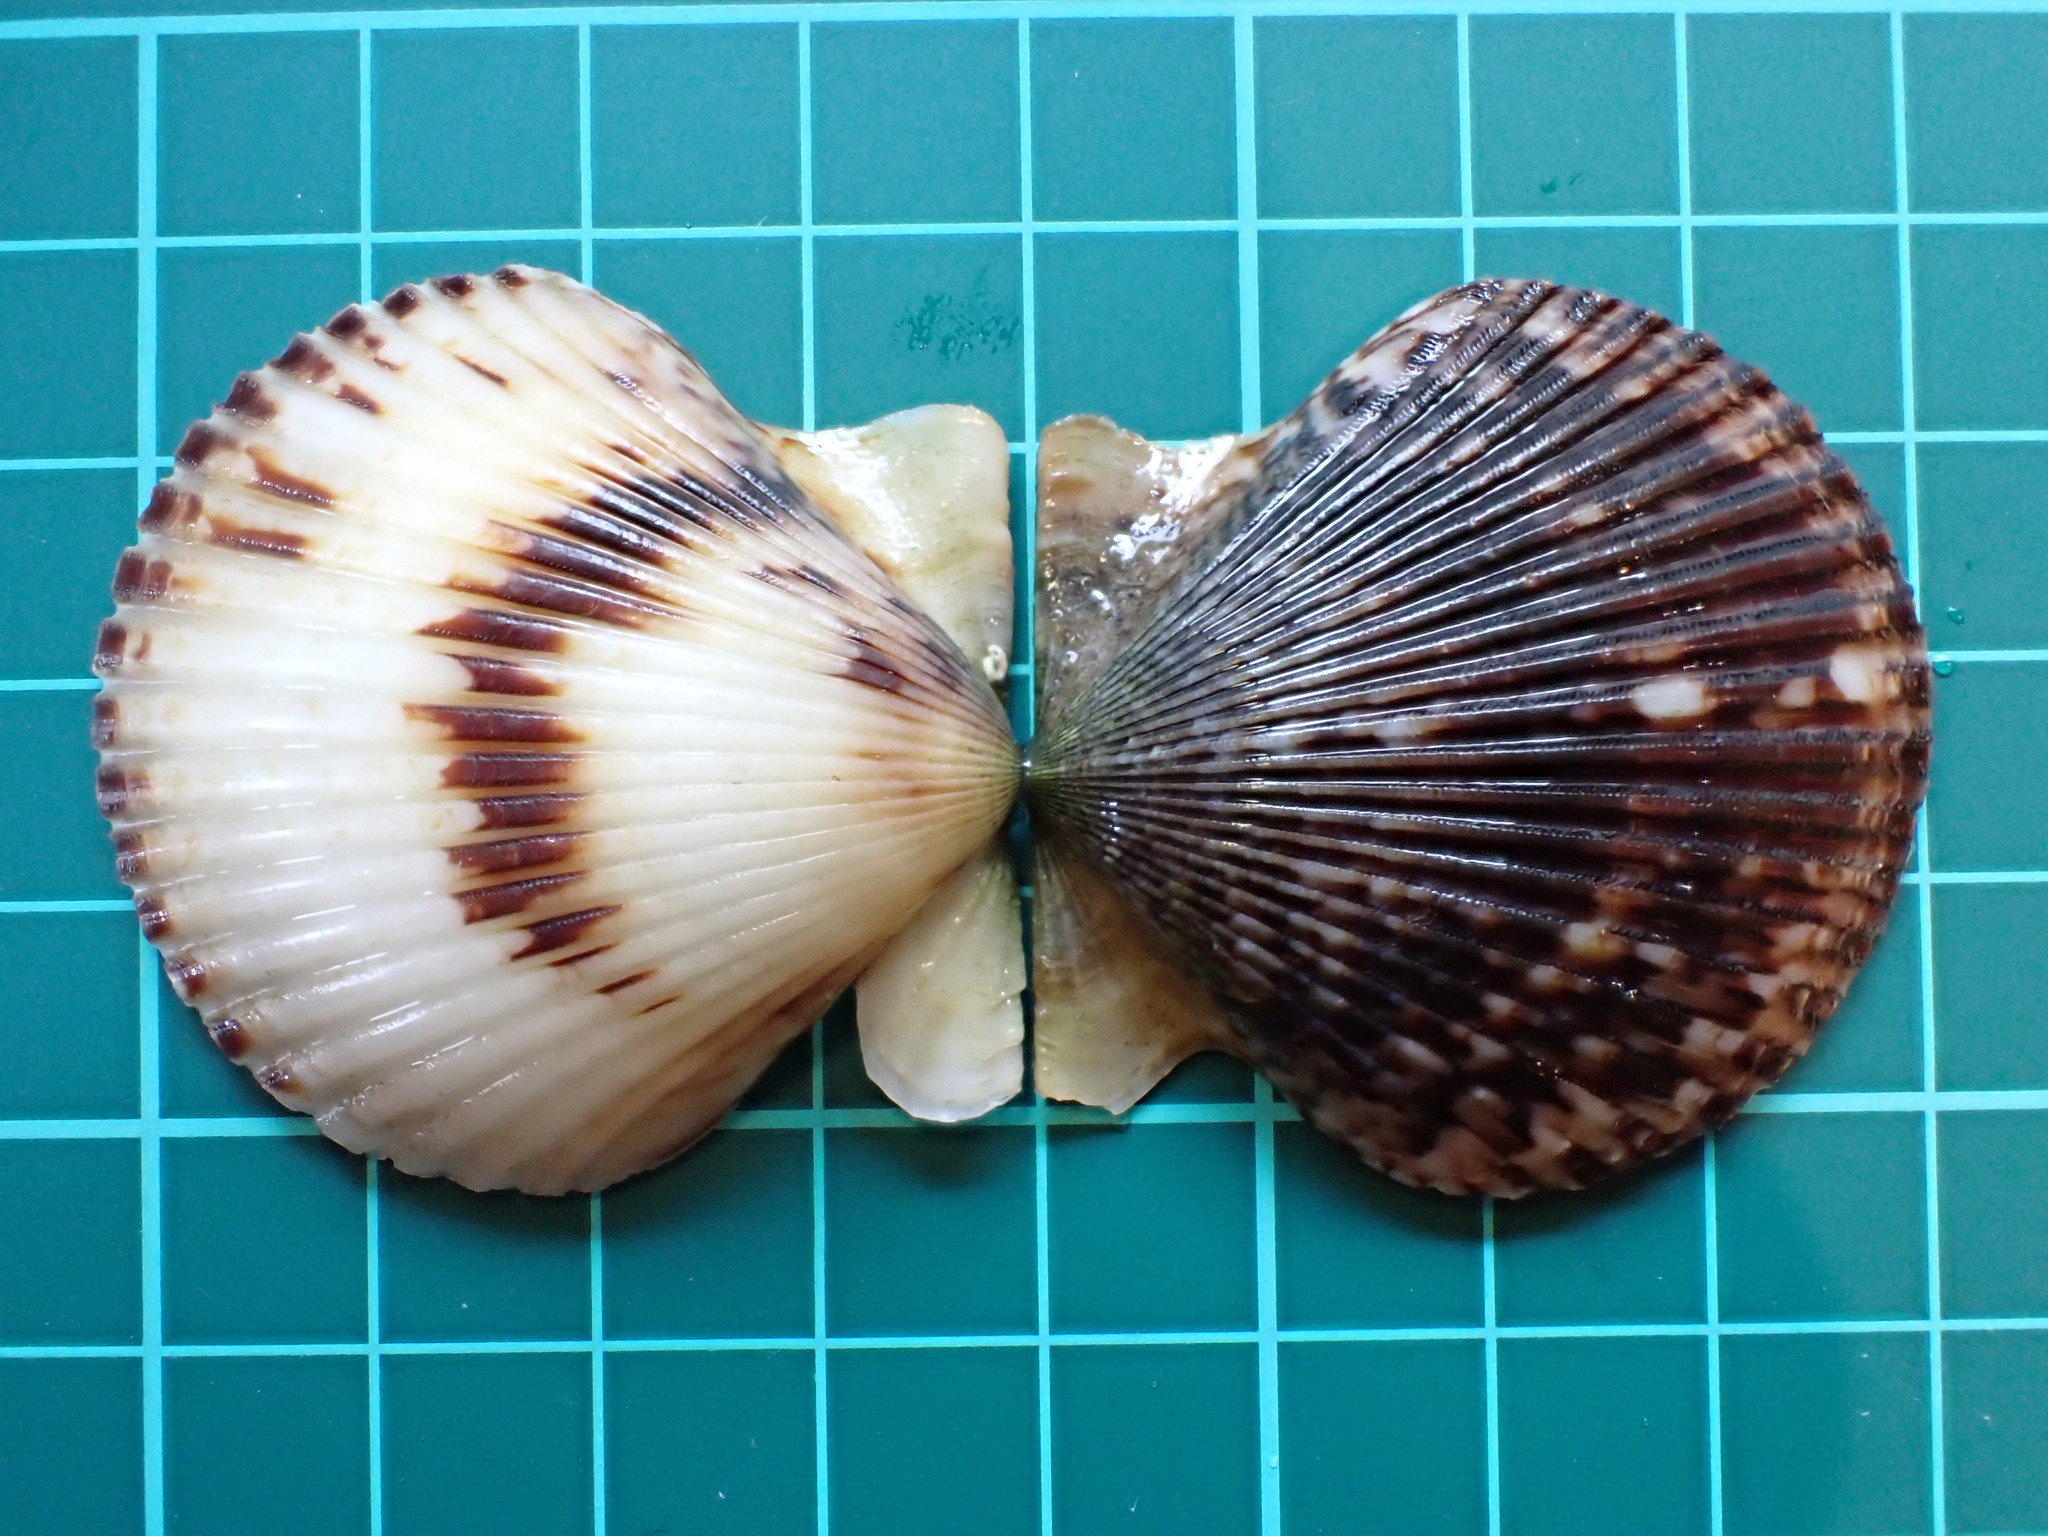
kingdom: Animalia
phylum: Mollusca
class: Bivalvia
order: Pectinida
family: Pectinidae
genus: Argopecten
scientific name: Argopecten ventricosus
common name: Catarina scallop
